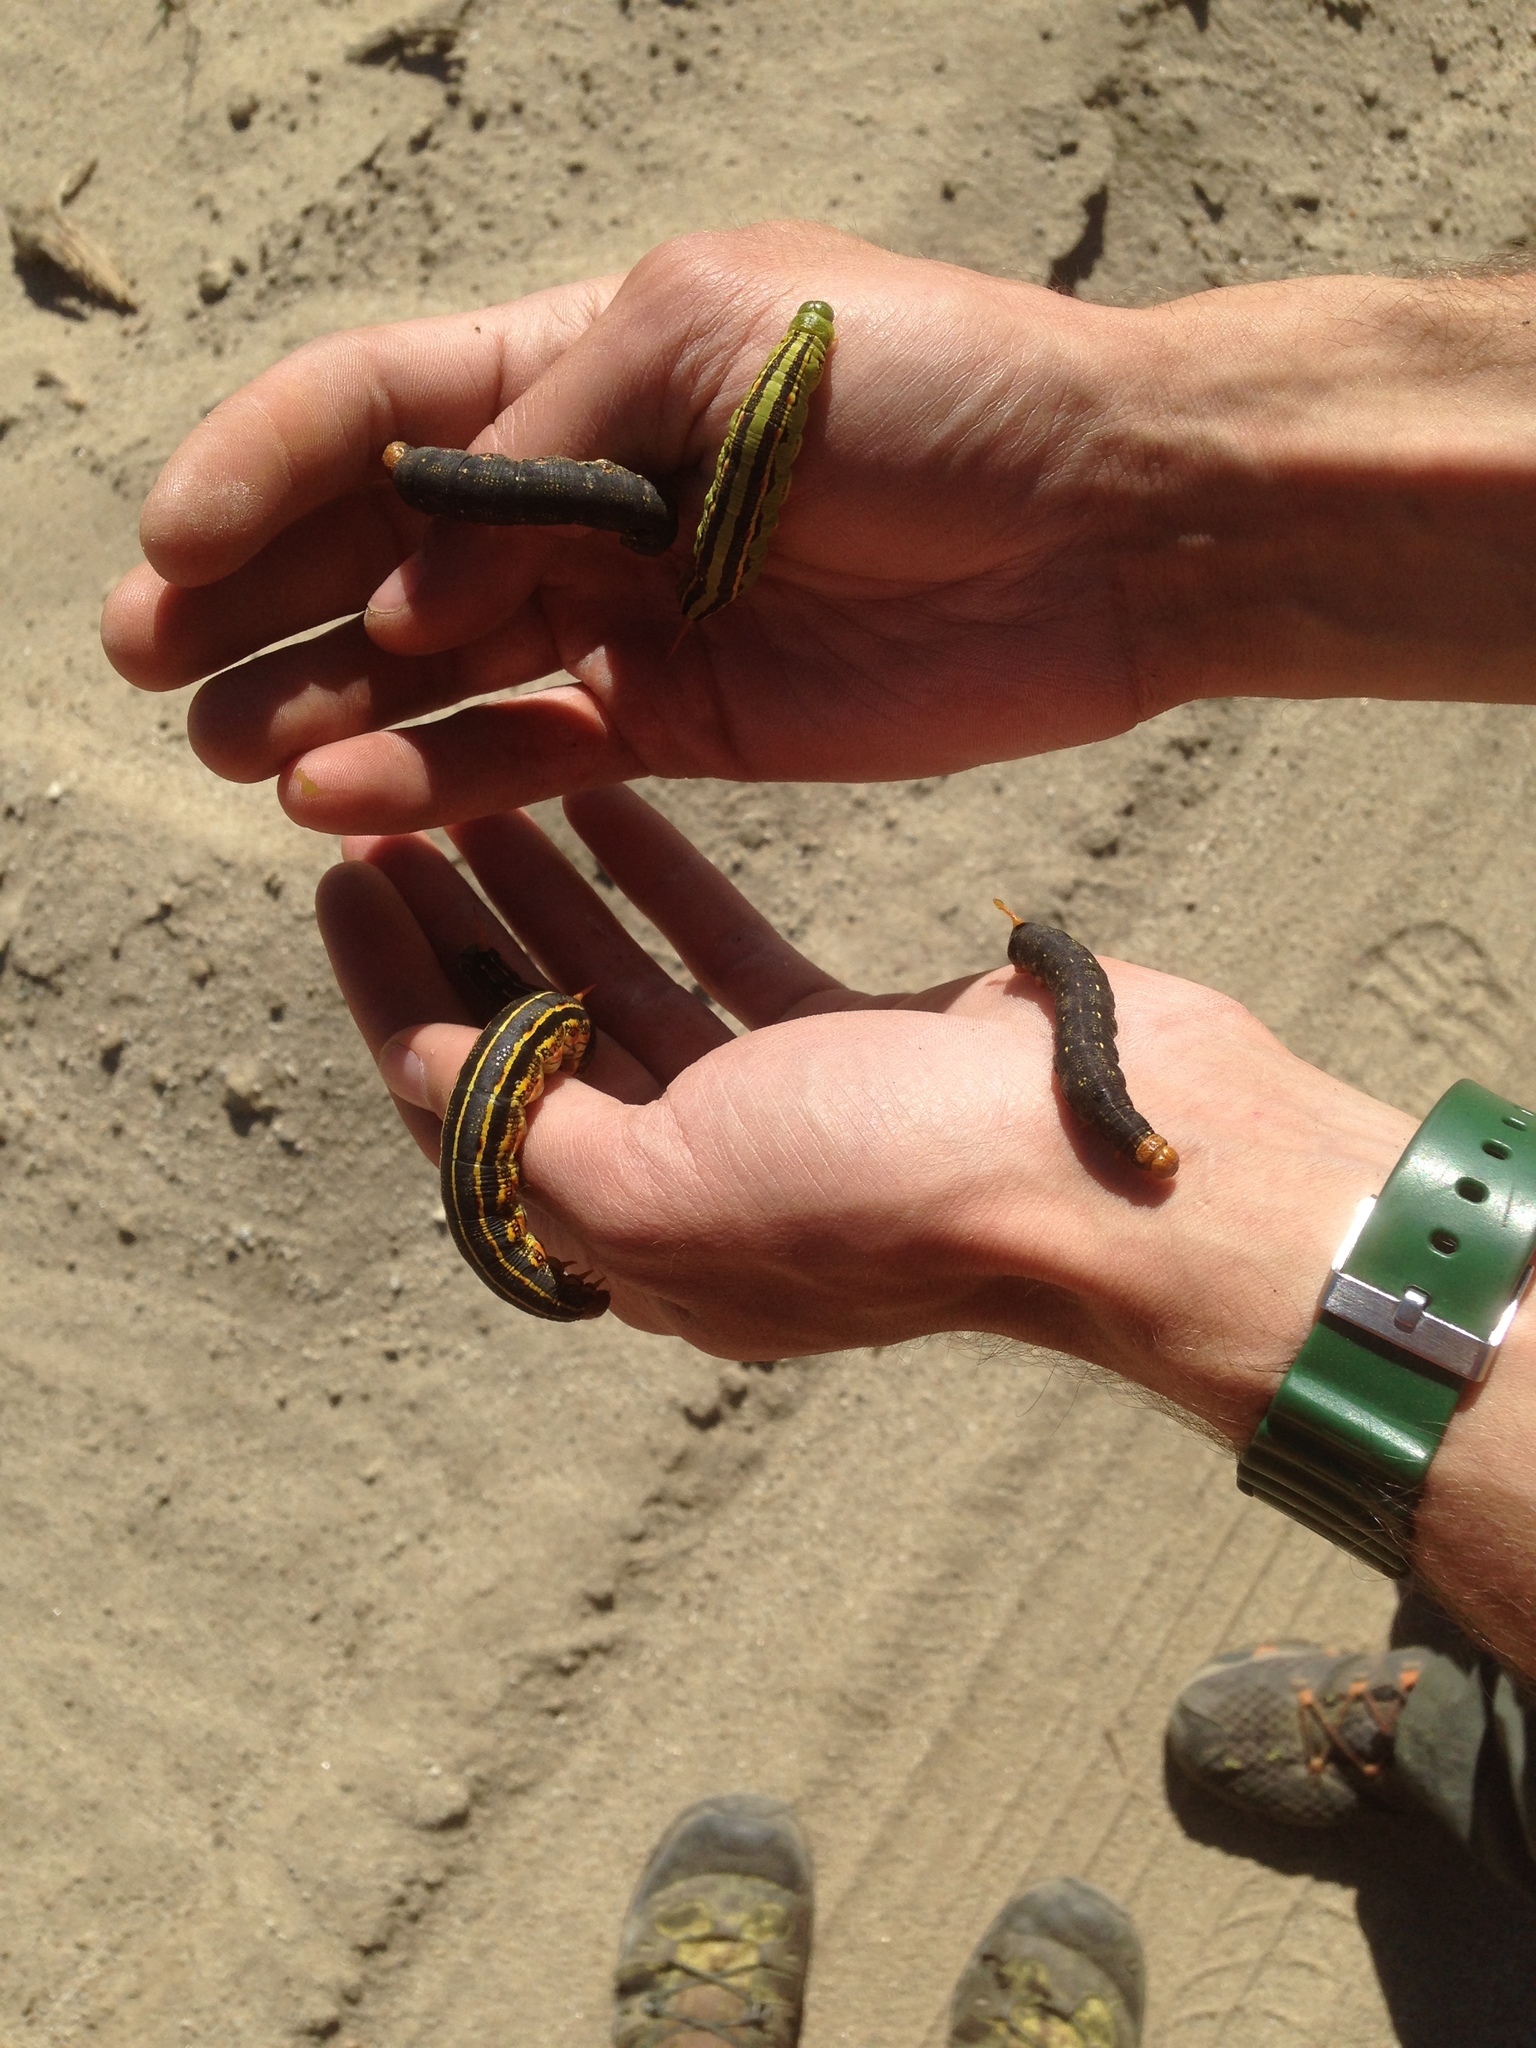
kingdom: Animalia
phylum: Arthropoda
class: Insecta
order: Lepidoptera
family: Sphingidae
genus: Hyles
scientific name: Hyles lineata
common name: White-lined sphinx
